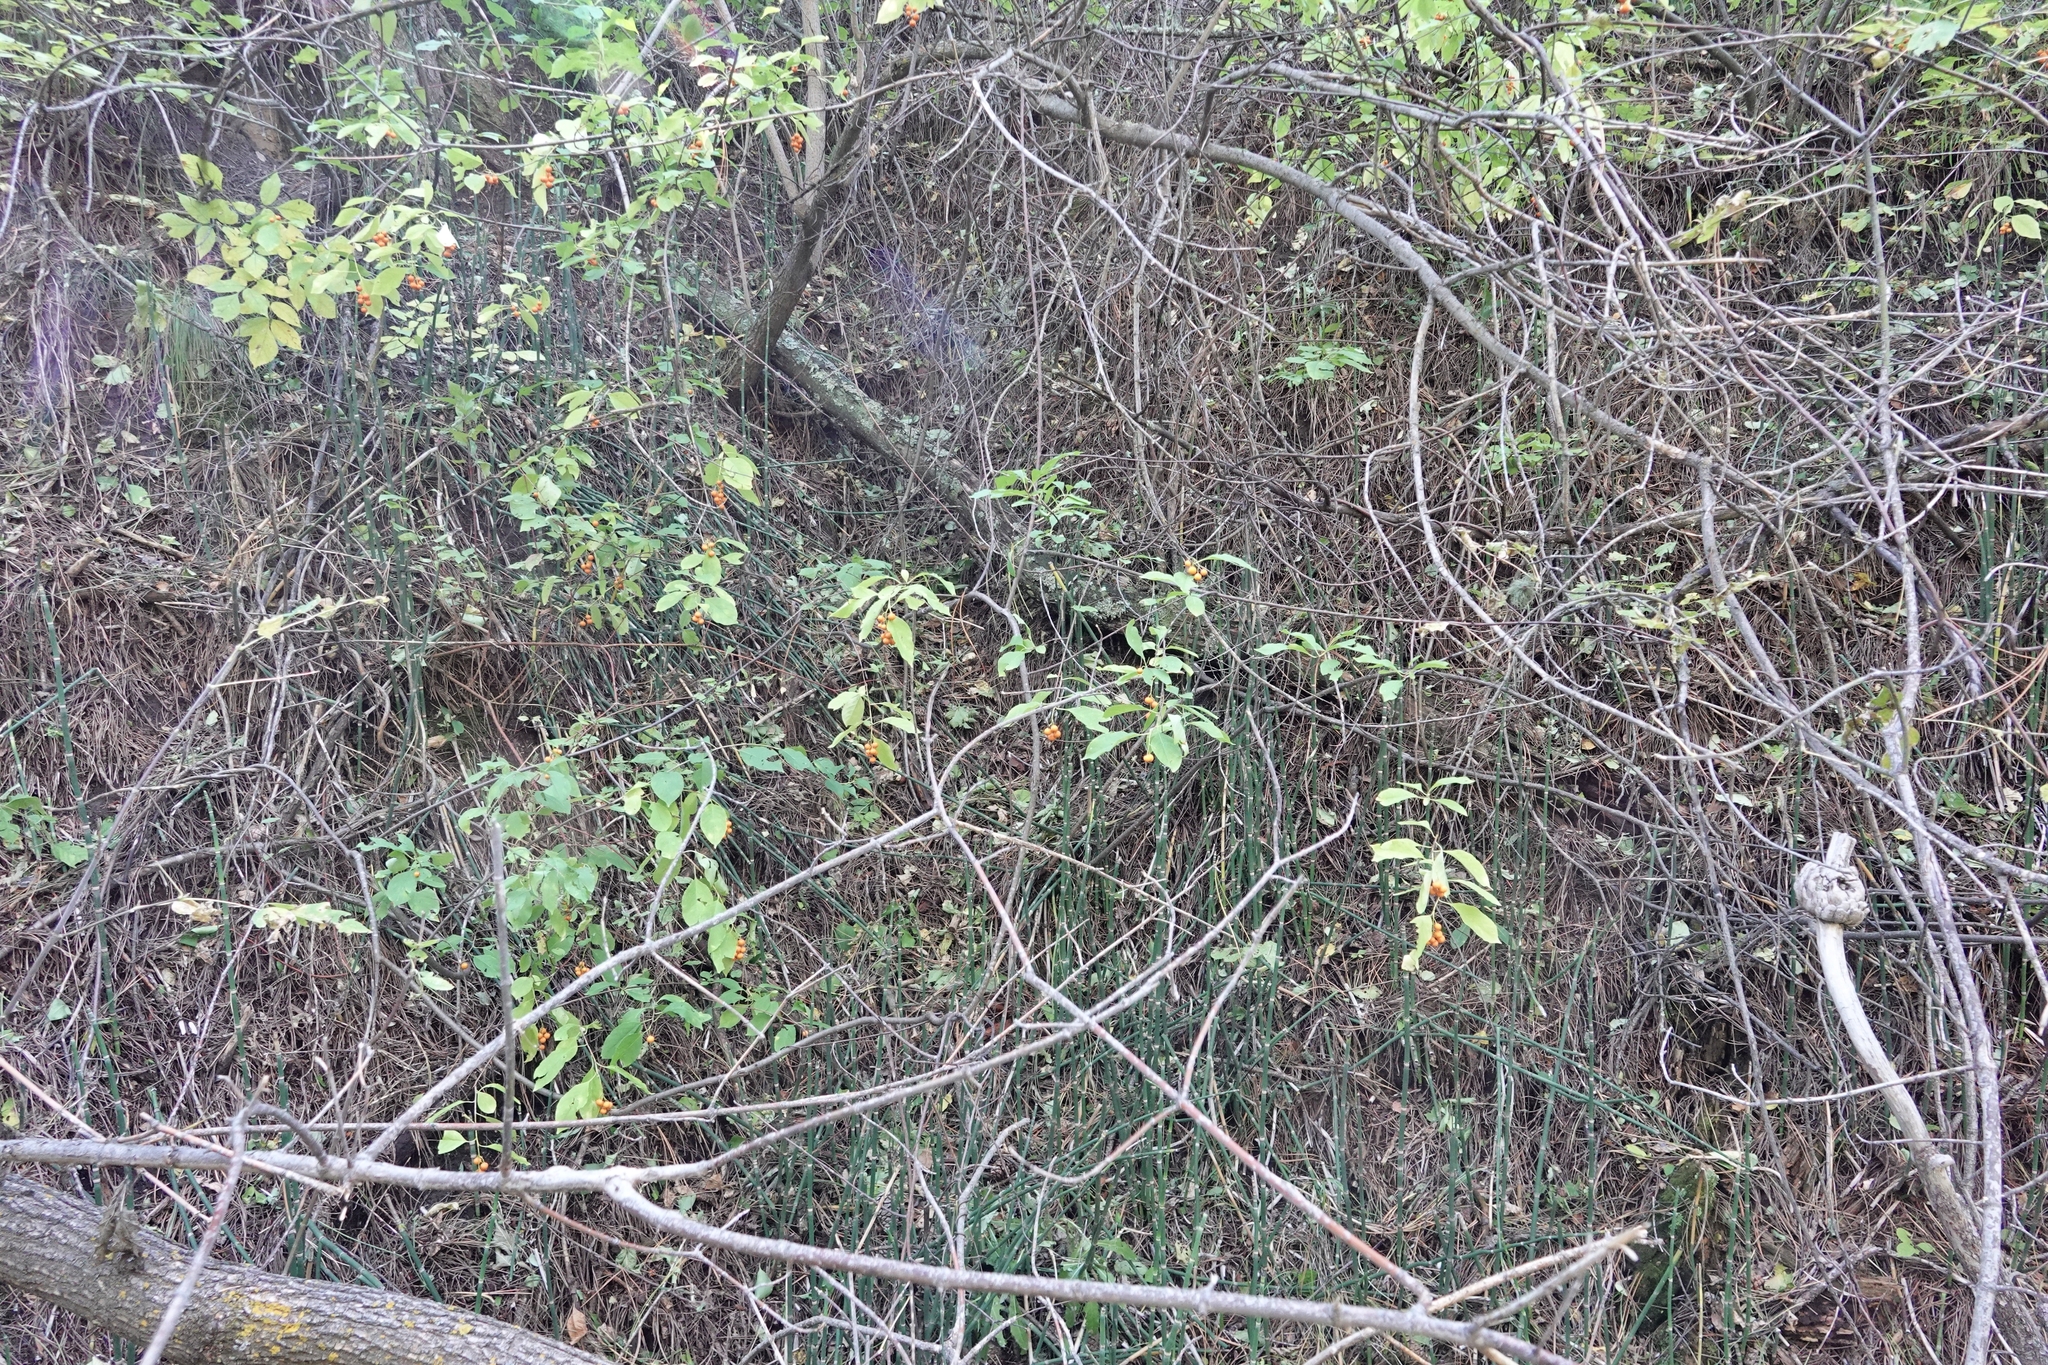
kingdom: Plantae
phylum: Tracheophyta
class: Magnoliopsida
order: Celastrales
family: Celastraceae
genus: Celastrus
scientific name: Celastrus scandens
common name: American bittersweet
